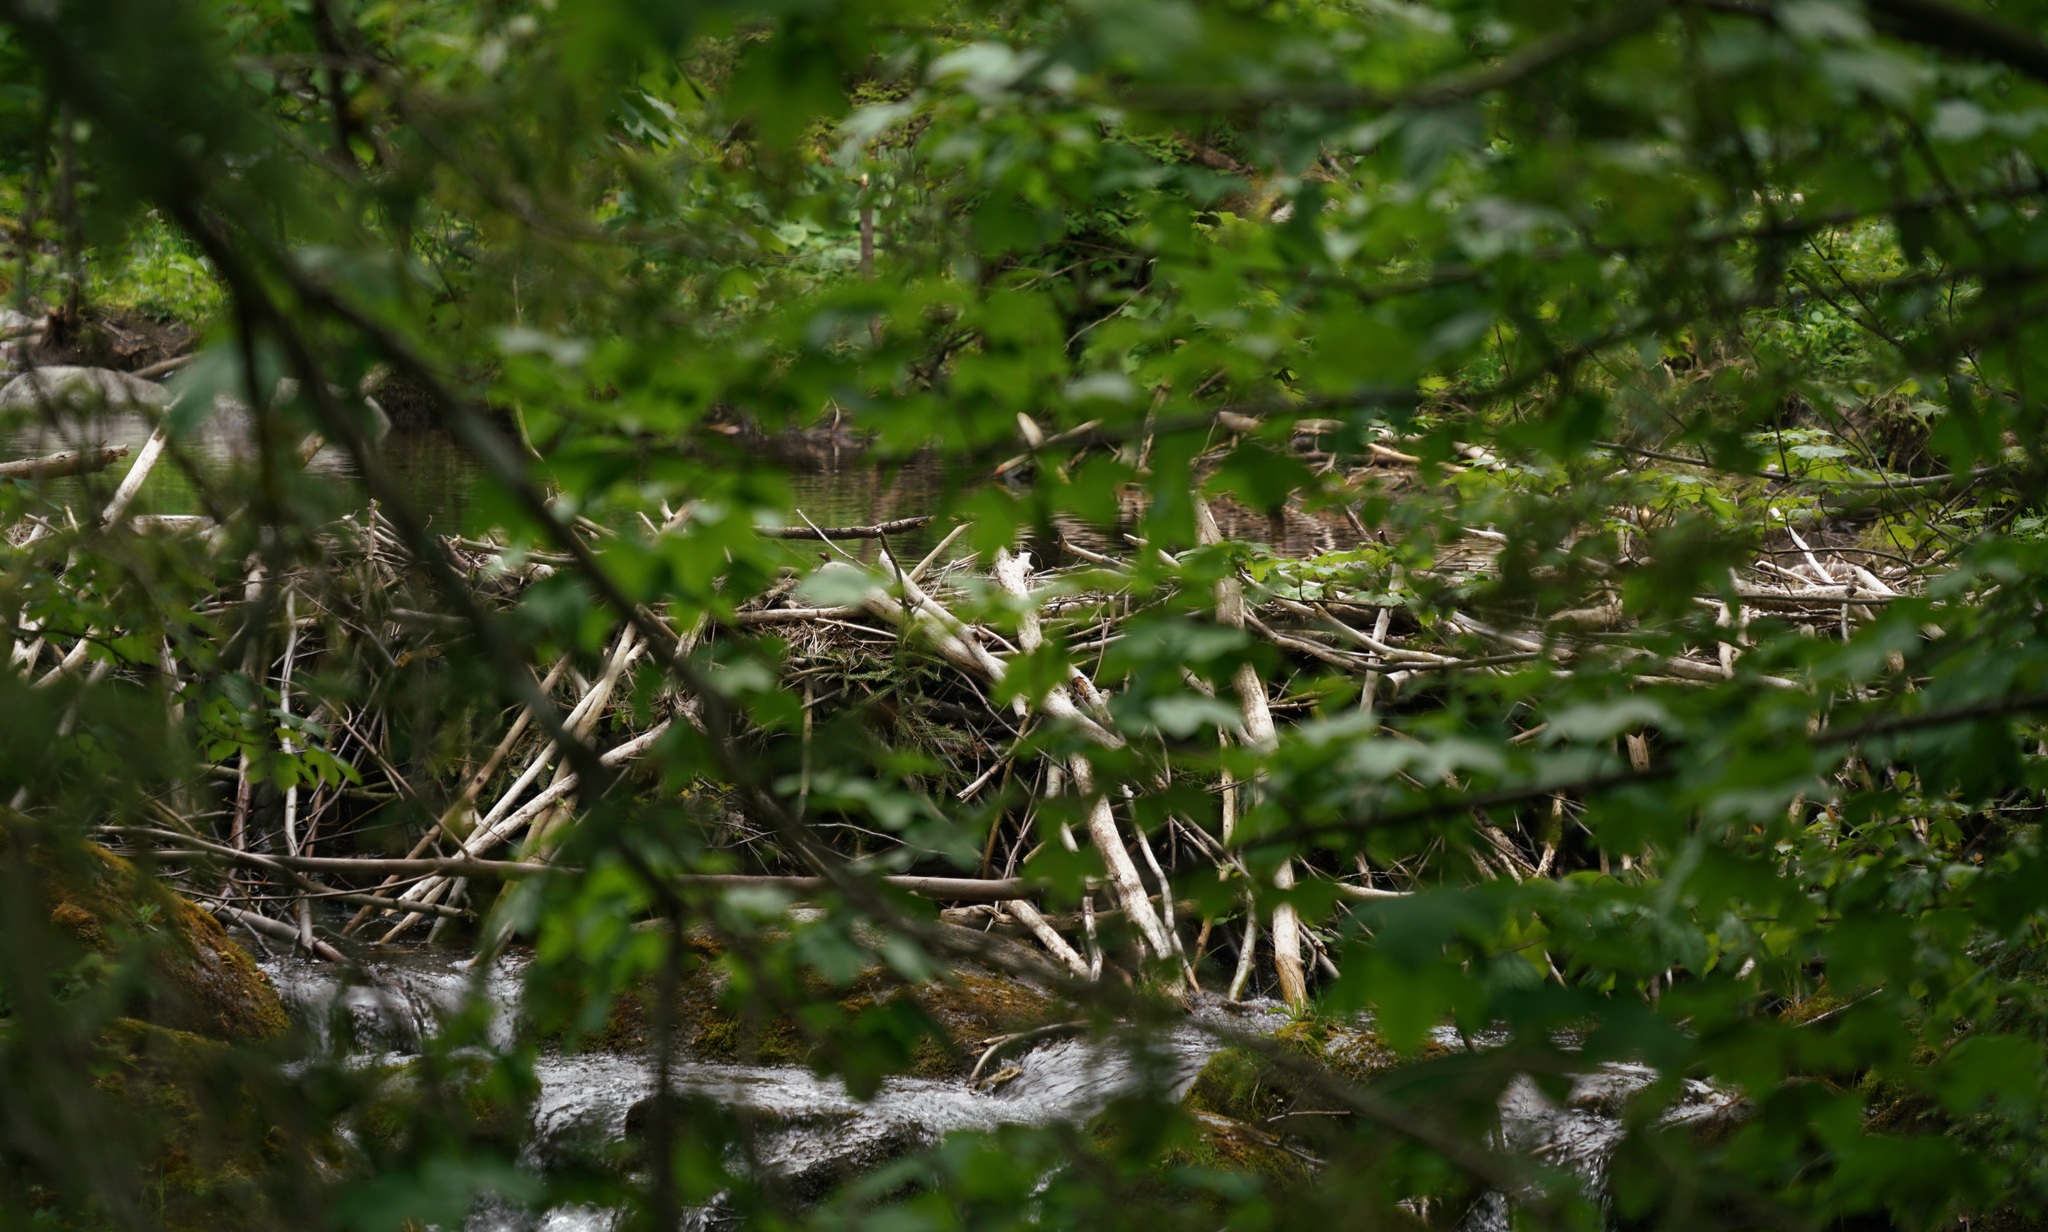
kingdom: Animalia
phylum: Chordata
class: Mammalia
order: Rodentia
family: Castoridae
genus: Castor
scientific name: Castor fiber
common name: Eurasian beaver
